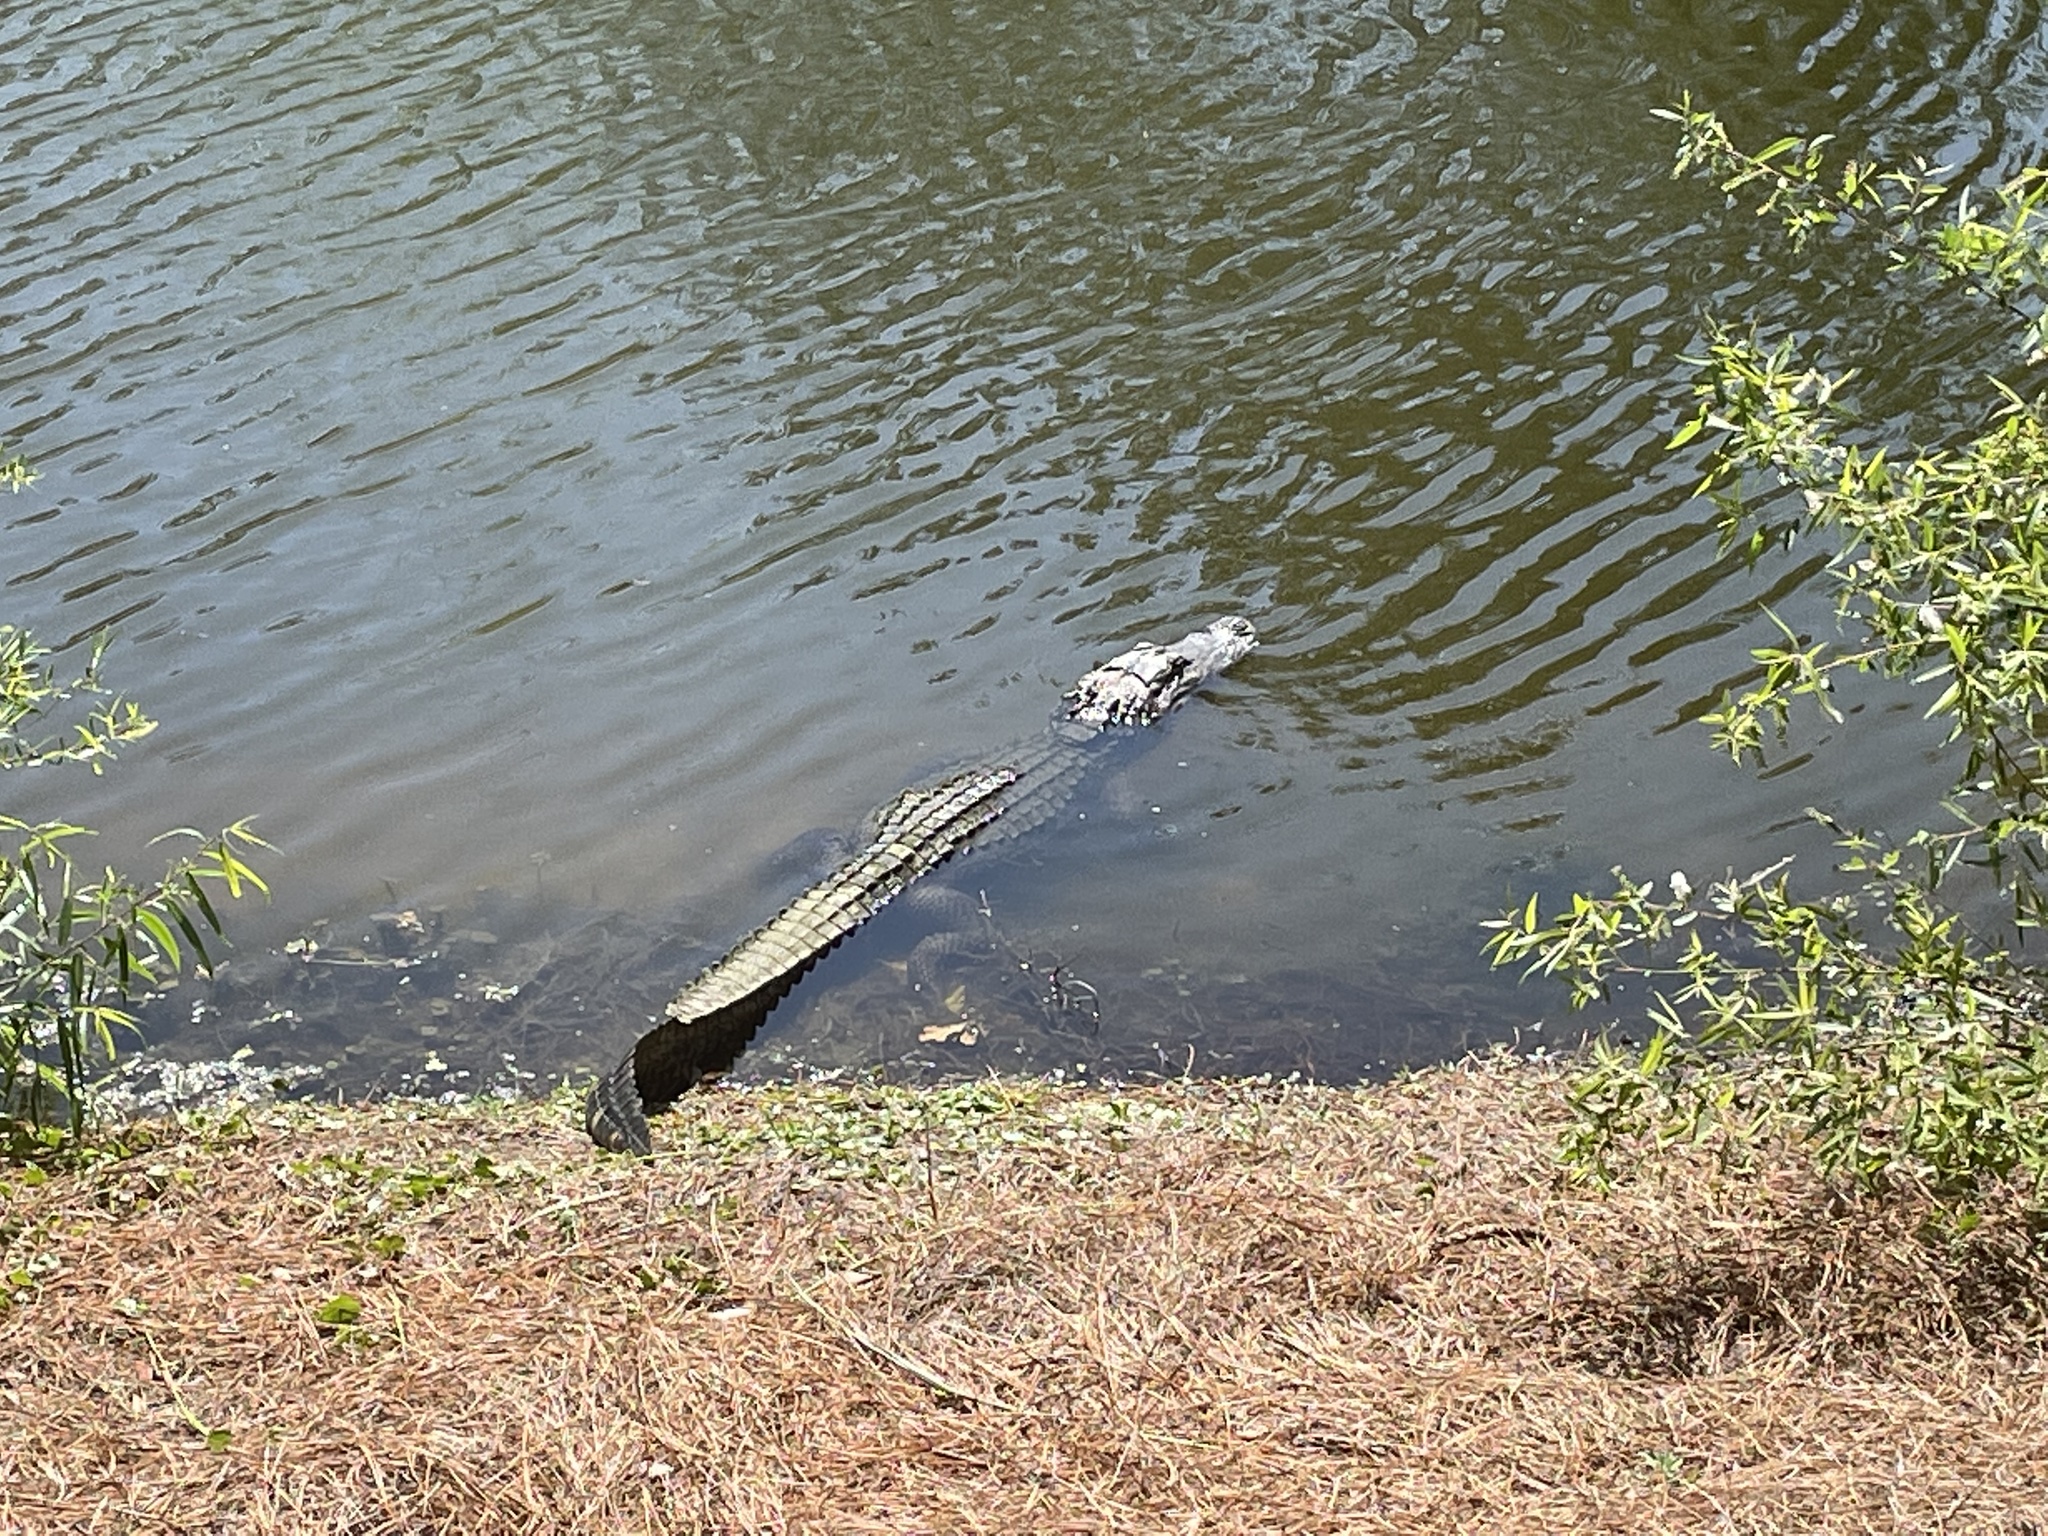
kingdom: Animalia
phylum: Chordata
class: Crocodylia
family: Alligatoridae
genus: Alligator
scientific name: Alligator mississippiensis
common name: American alligator
